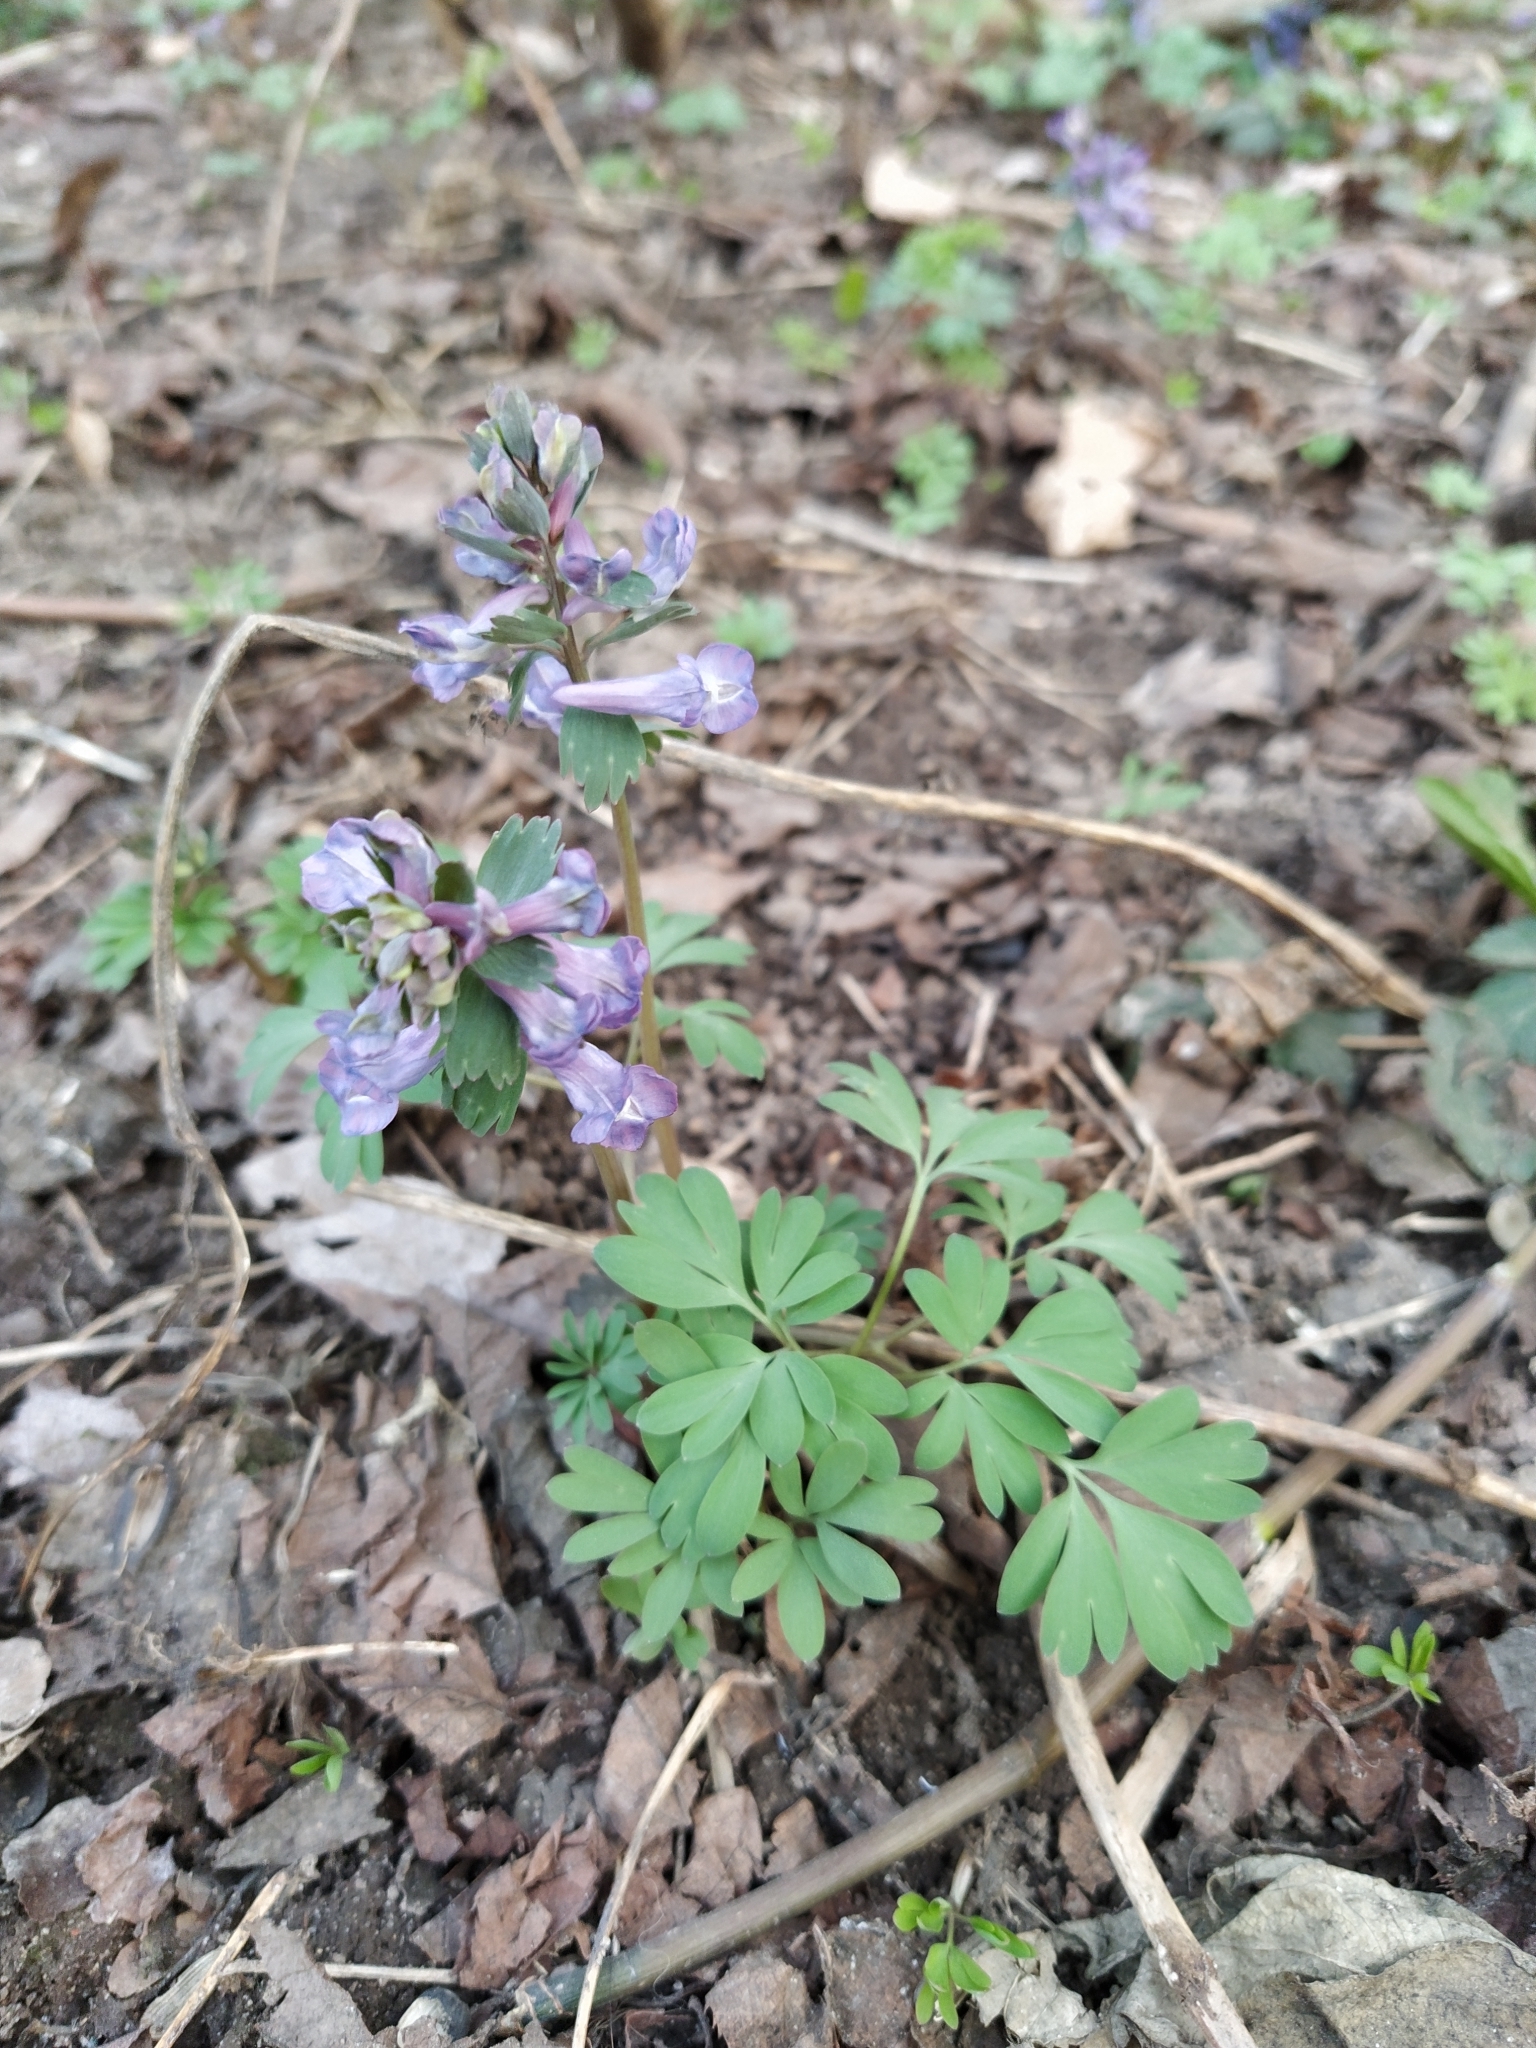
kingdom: Plantae
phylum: Tracheophyta
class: Magnoliopsida
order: Ranunculales
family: Papaveraceae
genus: Corydalis
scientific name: Corydalis solida
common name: Bird-in-a-bush
